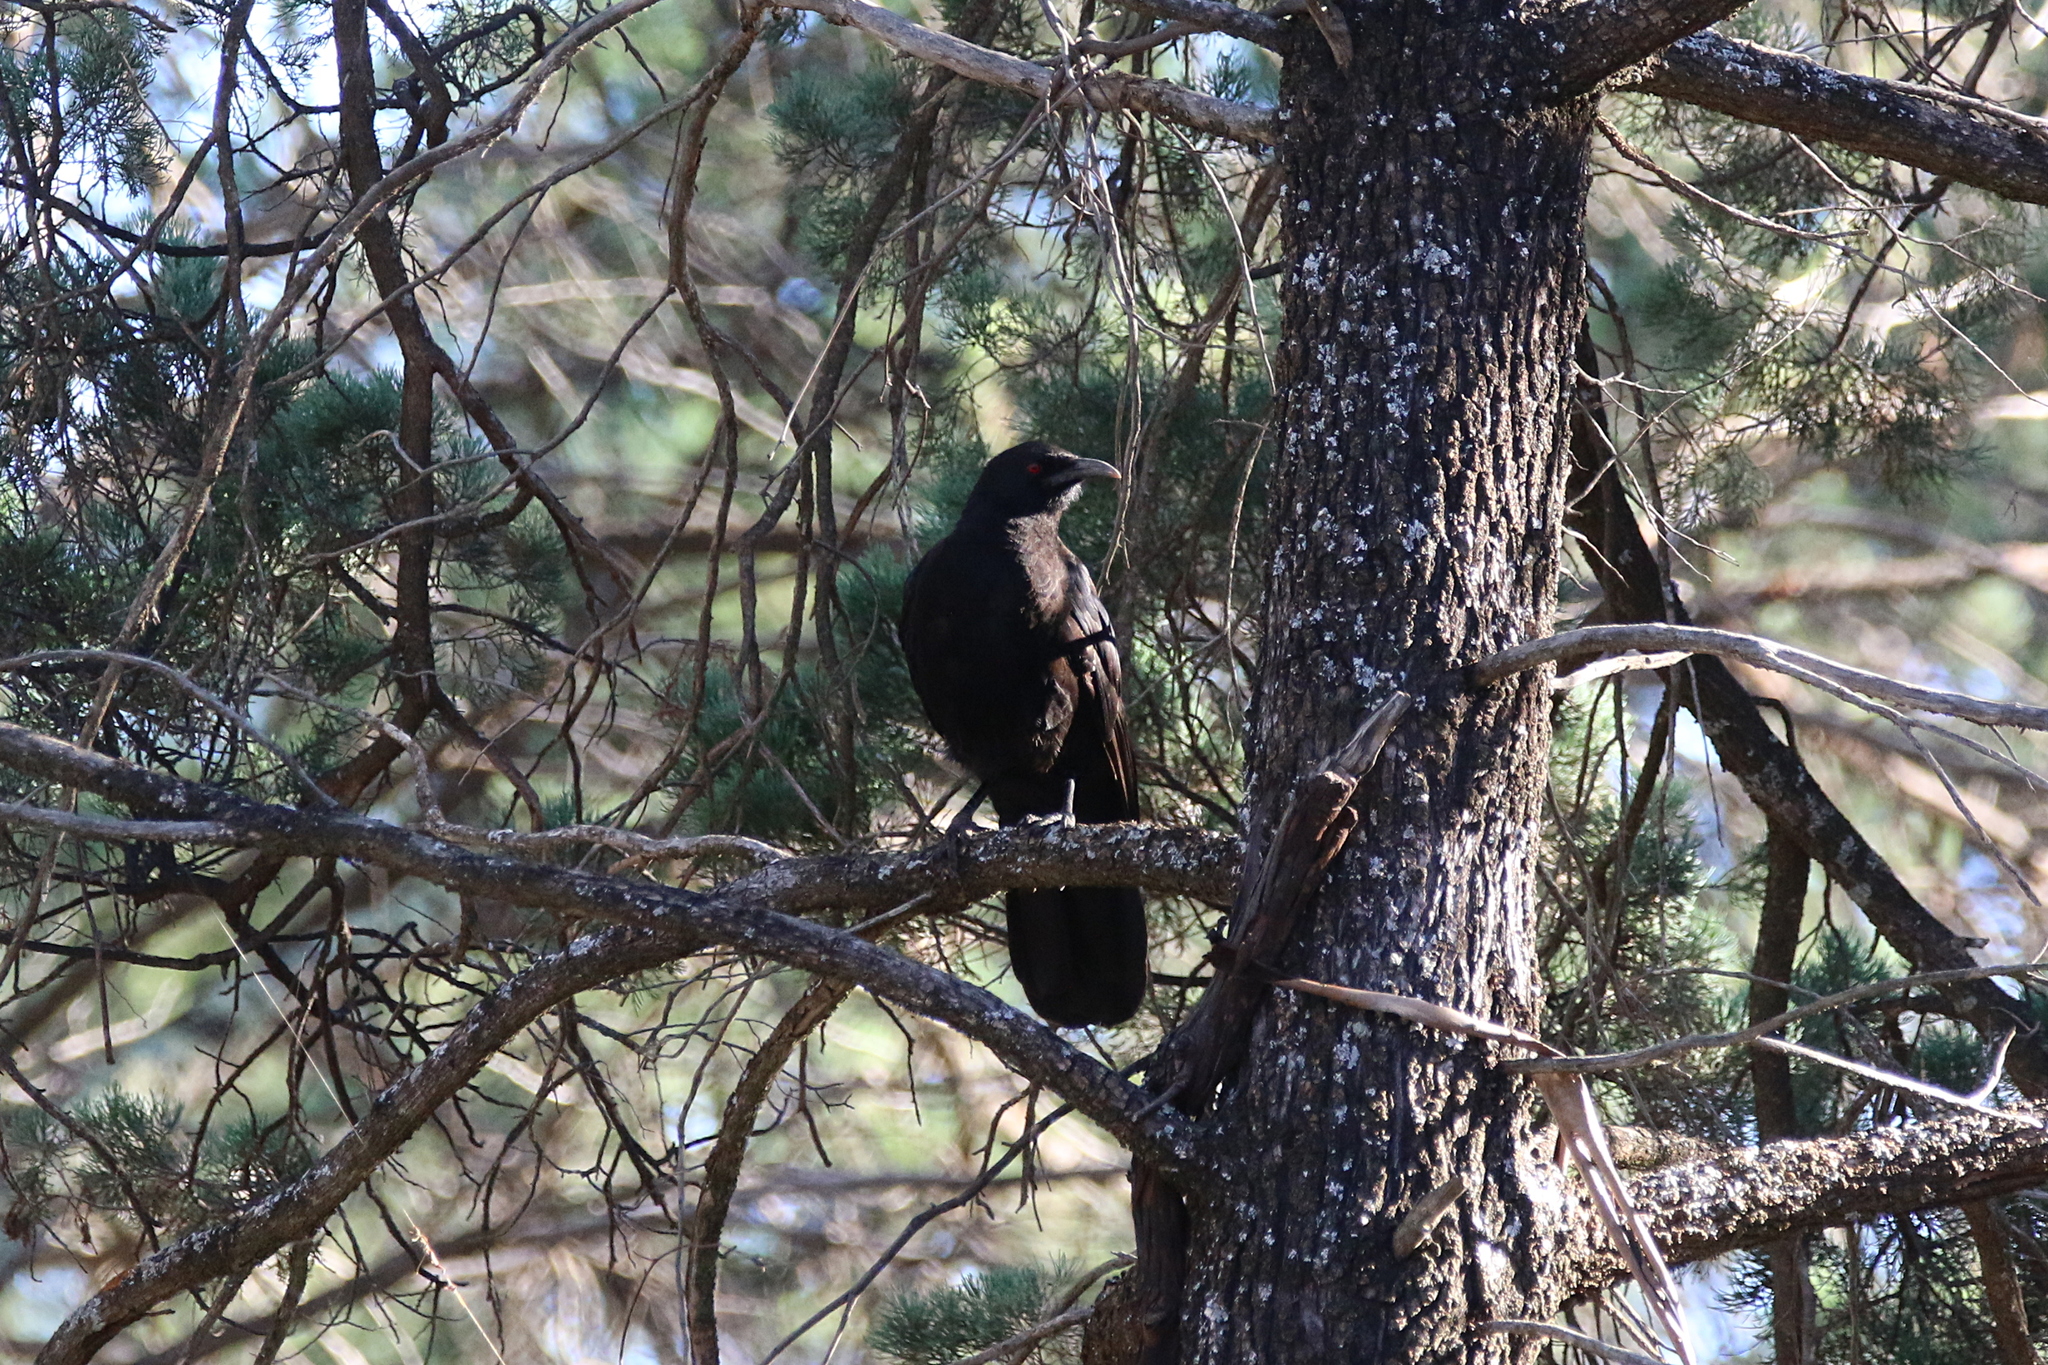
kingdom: Animalia
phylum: Chordata
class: Aves
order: Passeriformes
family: Corcoracidae
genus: Corcorax
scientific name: Corcorax melanoramphos
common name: White-winged chough
